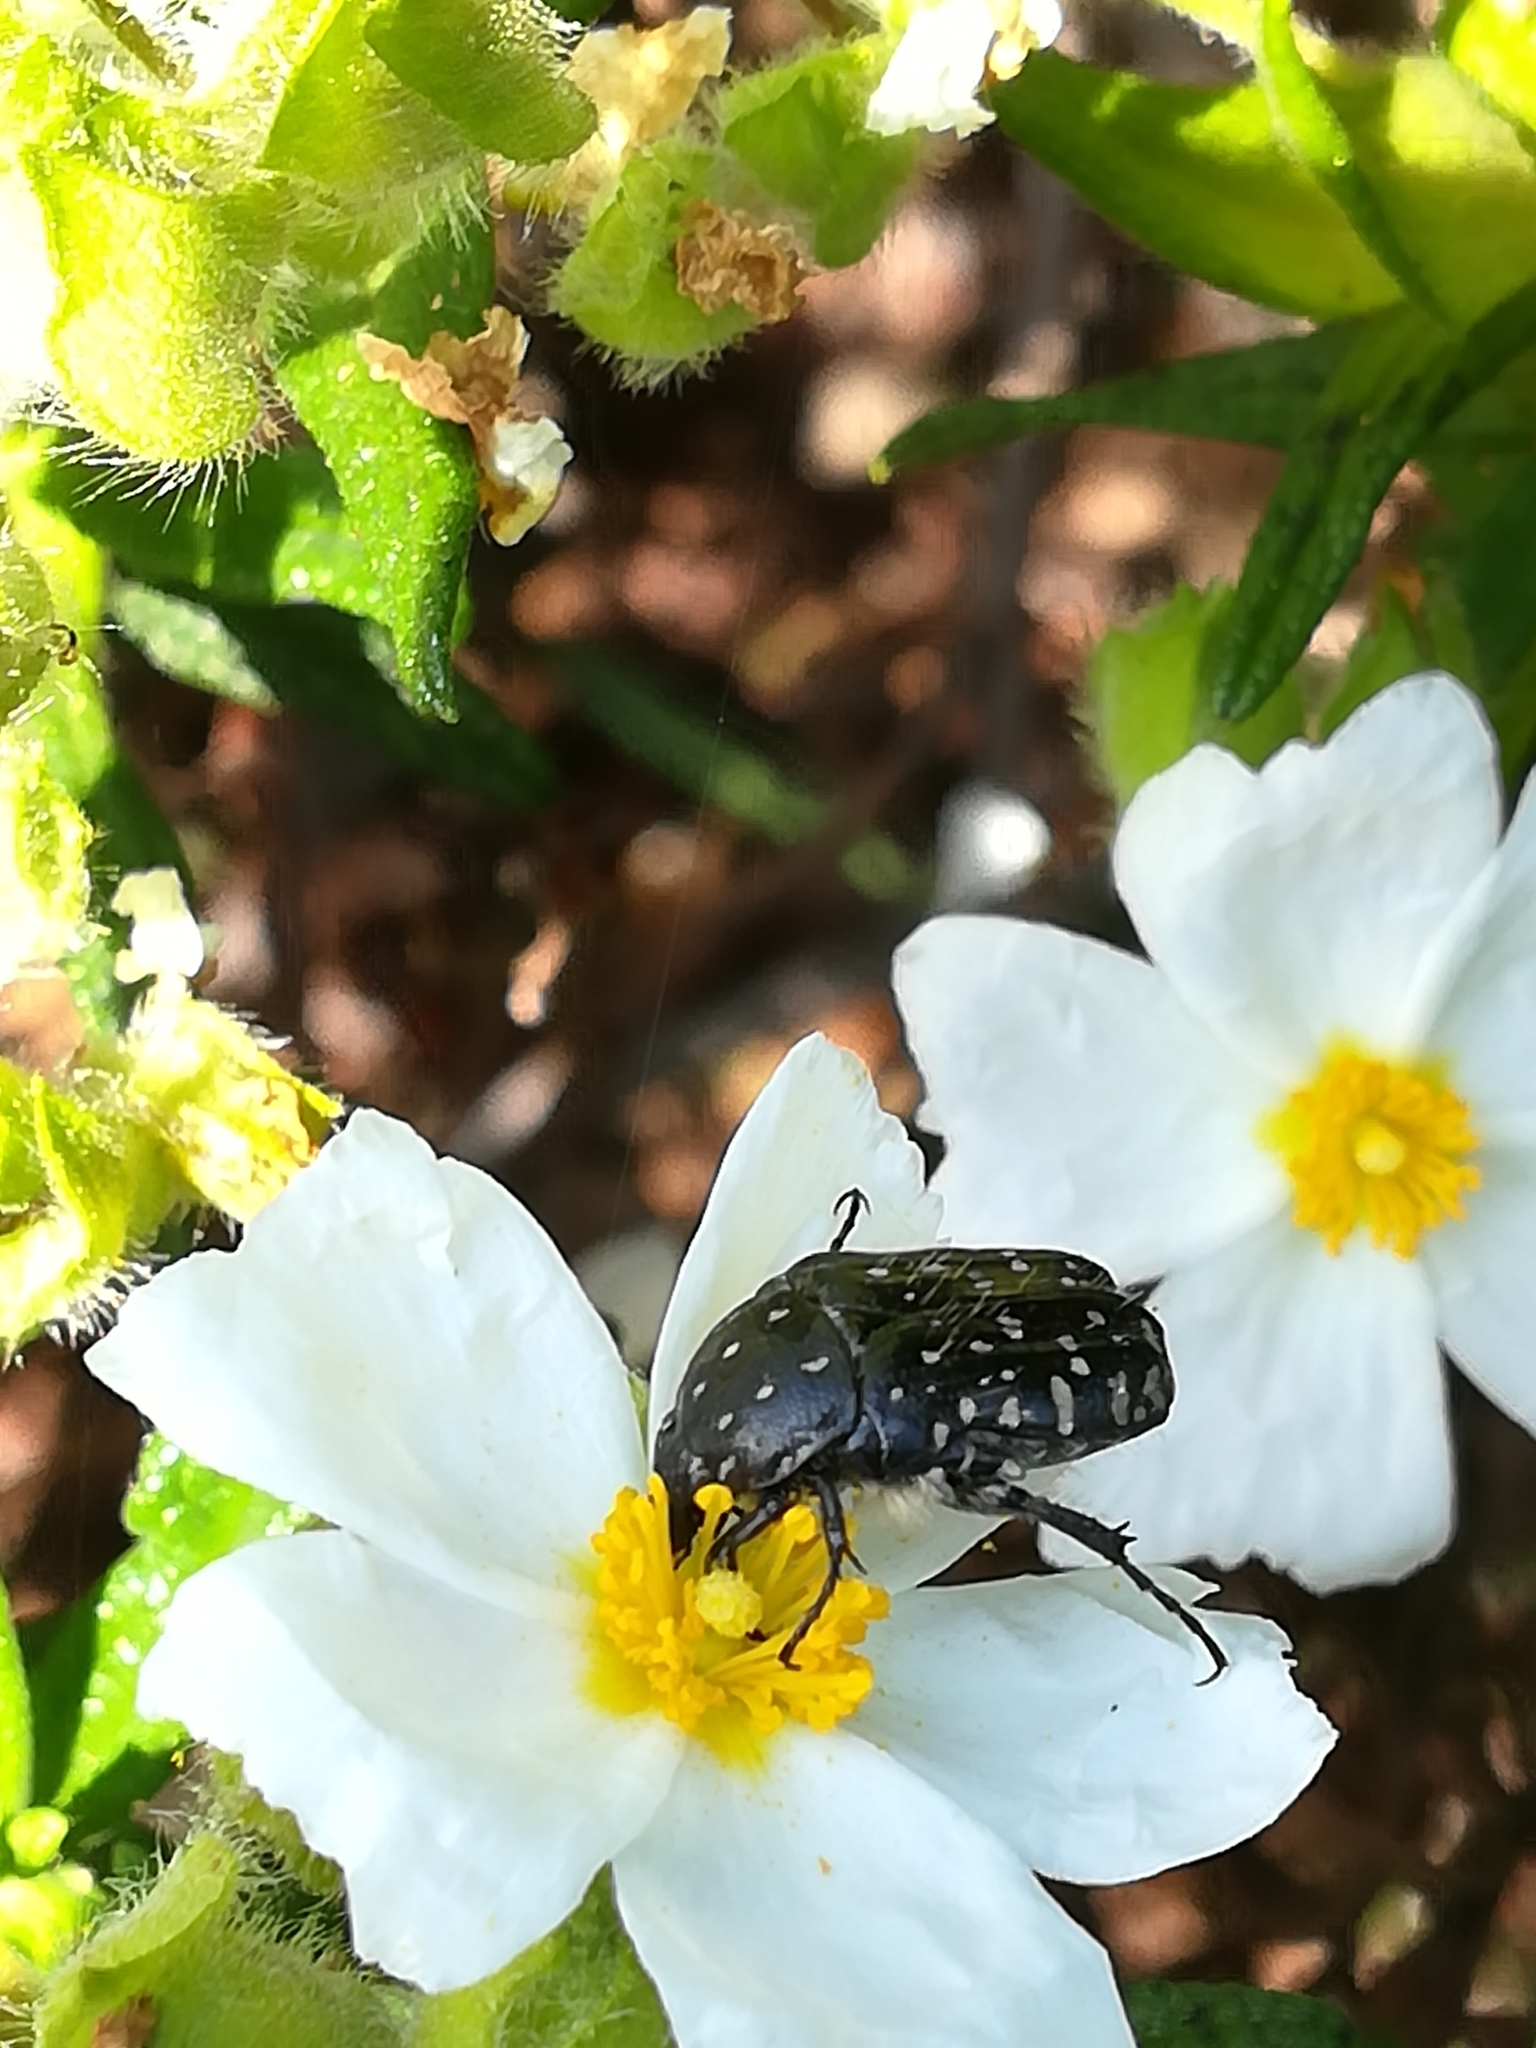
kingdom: Animalia
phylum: Arthropoda
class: Insecta
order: Coleoptera
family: Scarabaeidae
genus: Oxythyrea
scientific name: Oxythyrea funesta
